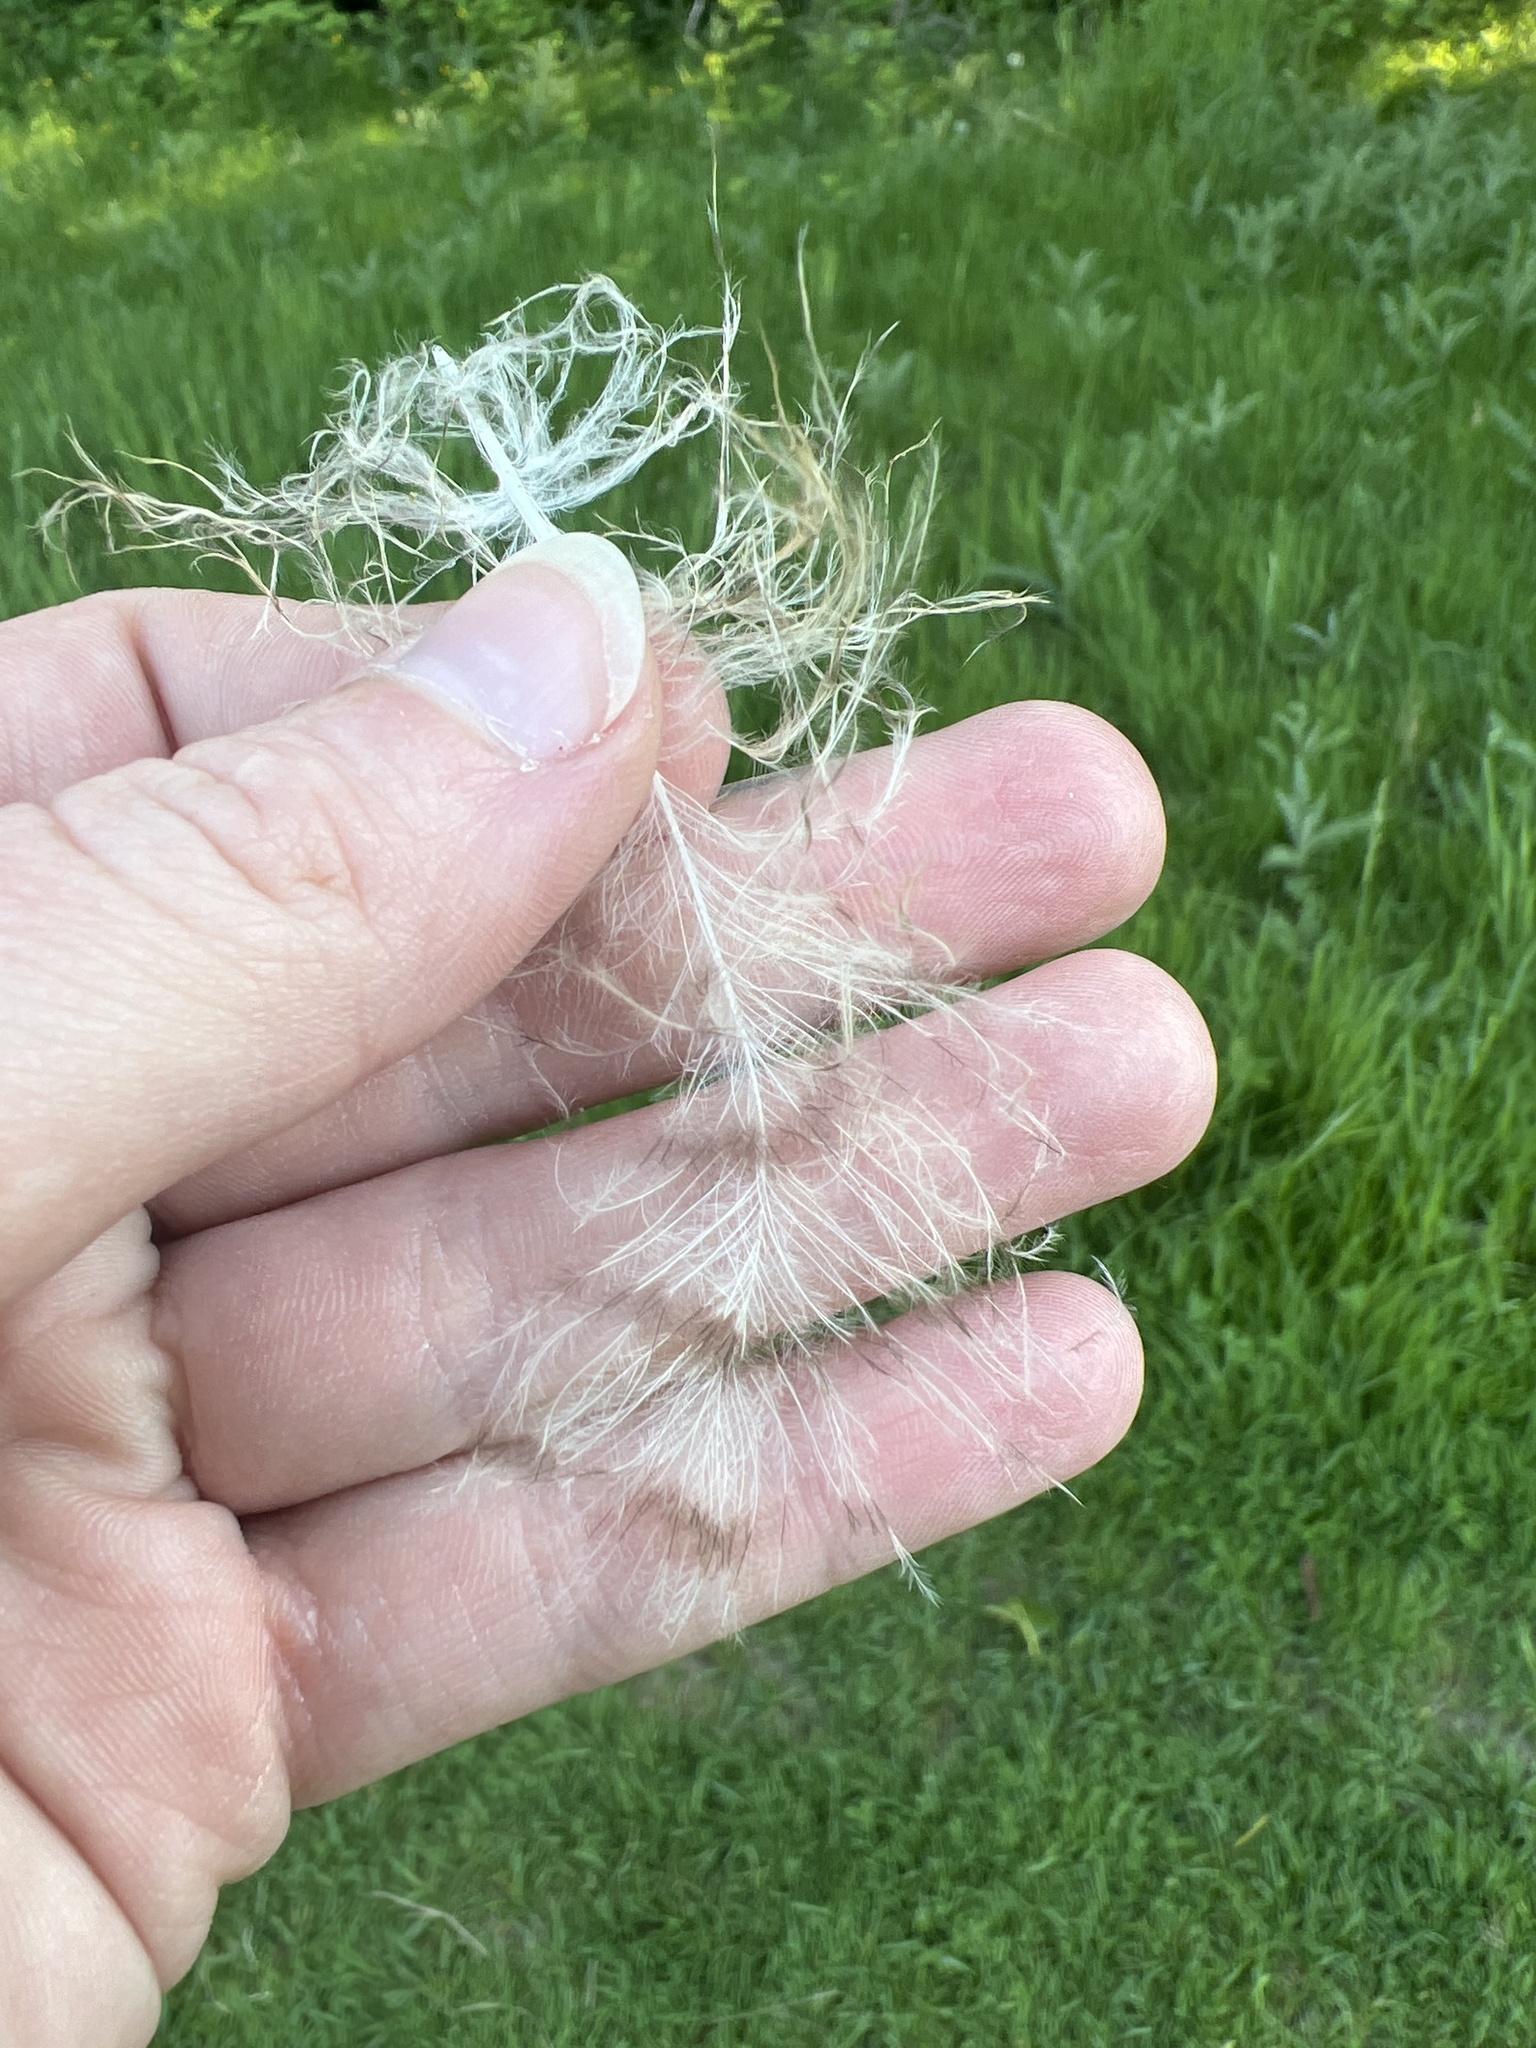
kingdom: Animalia
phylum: Chordata
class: Aves
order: Strigiformes
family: Strigidae
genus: Bubo
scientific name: Bubo virginianus
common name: Great horned owl
